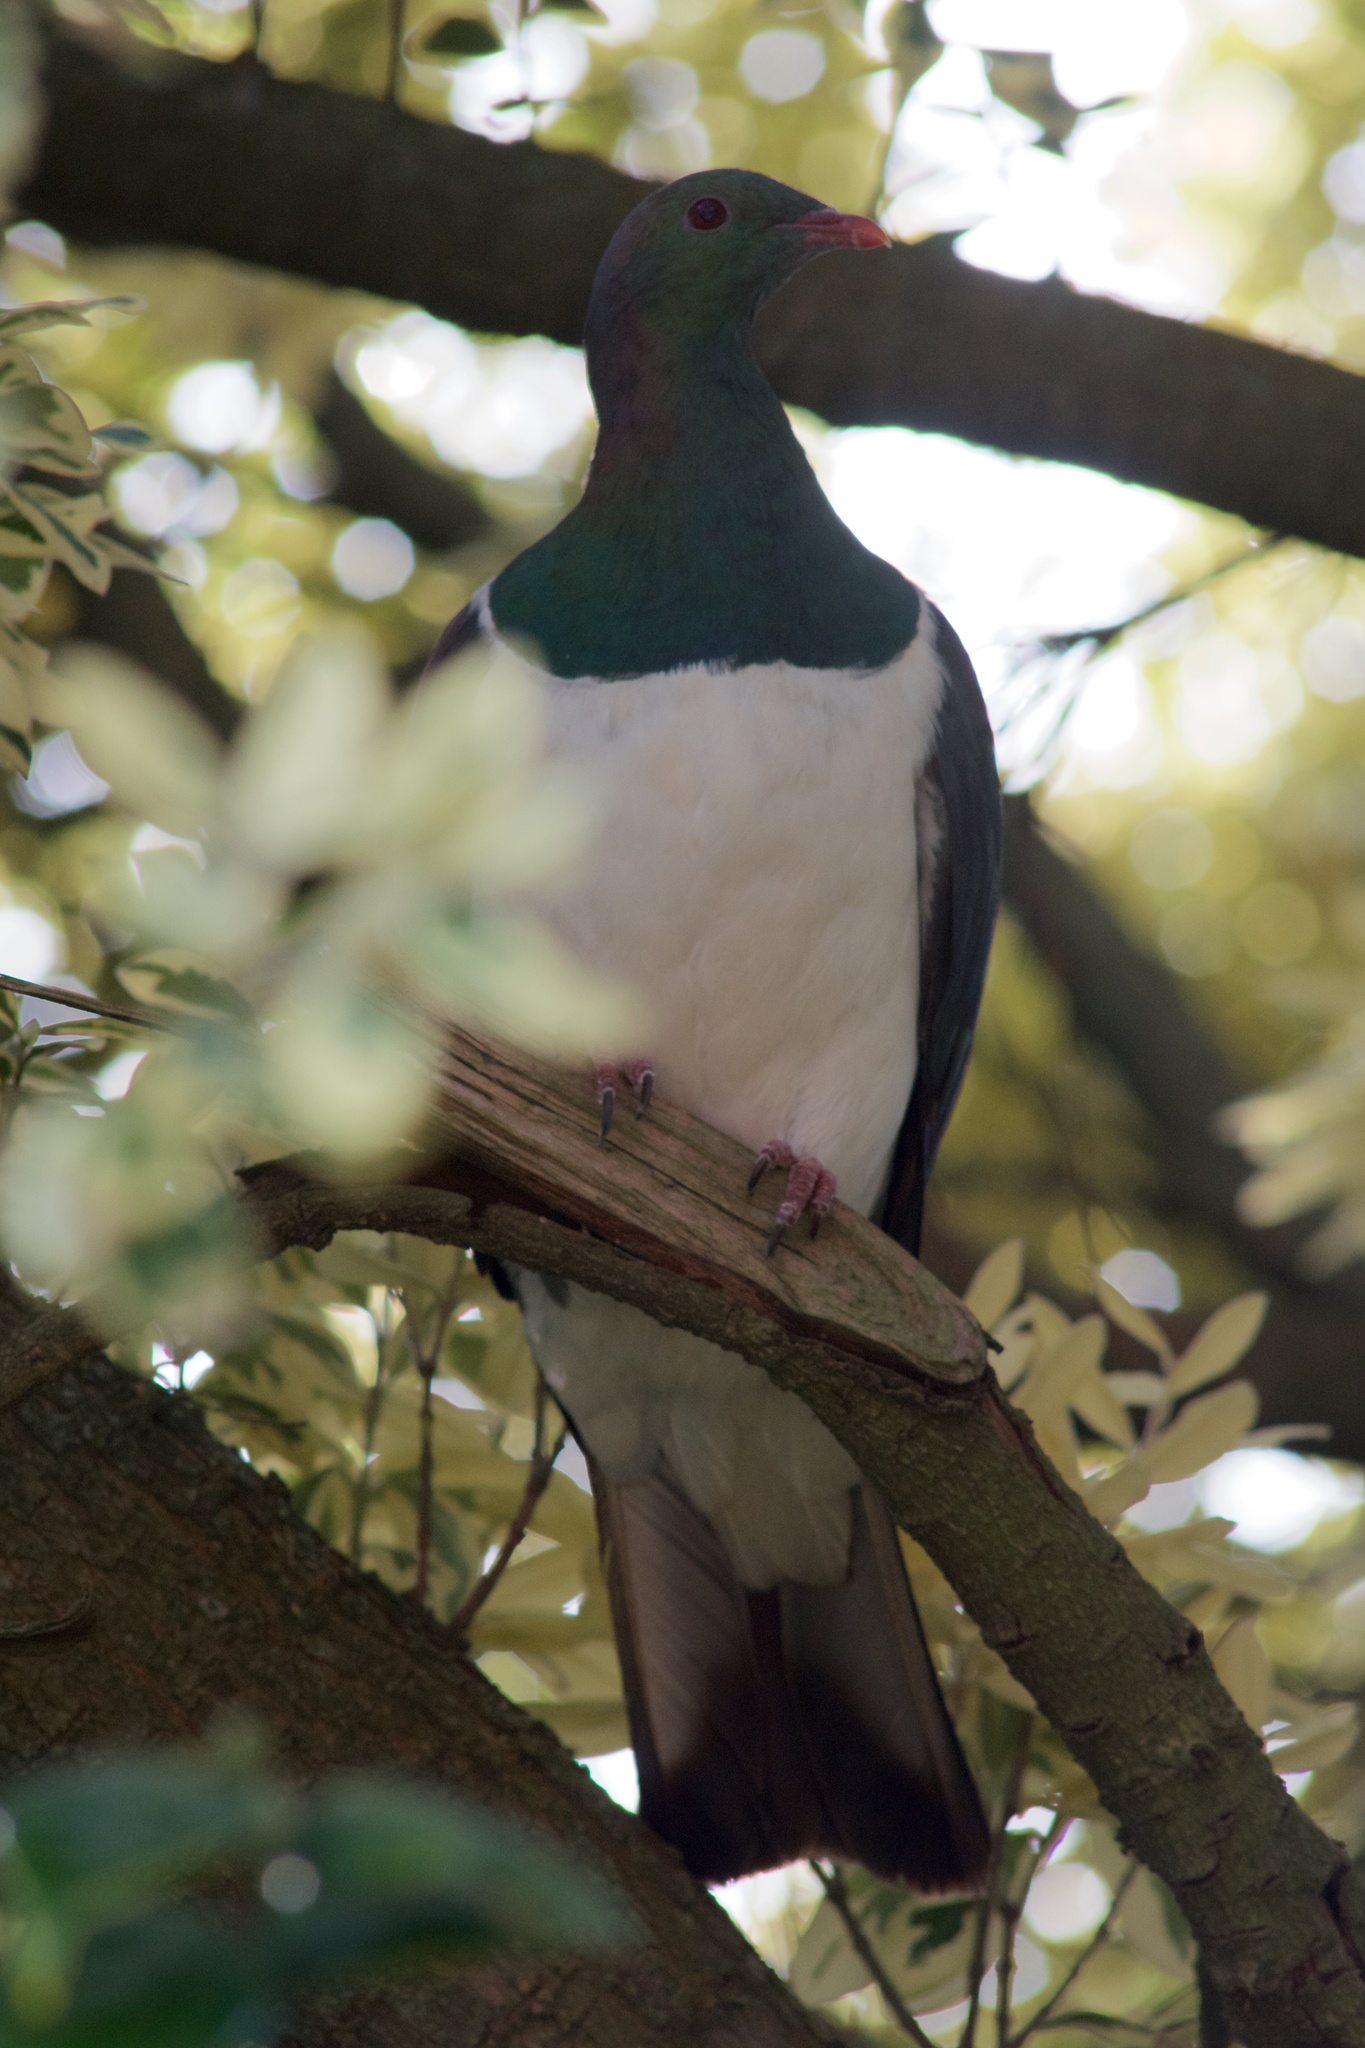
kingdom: Animalia
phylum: Chordata
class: Aves
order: Columbiformes
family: Columbidae
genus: Hemiphaga
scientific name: Hemiphaga novaeseelandiae
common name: New zealand pigeon
